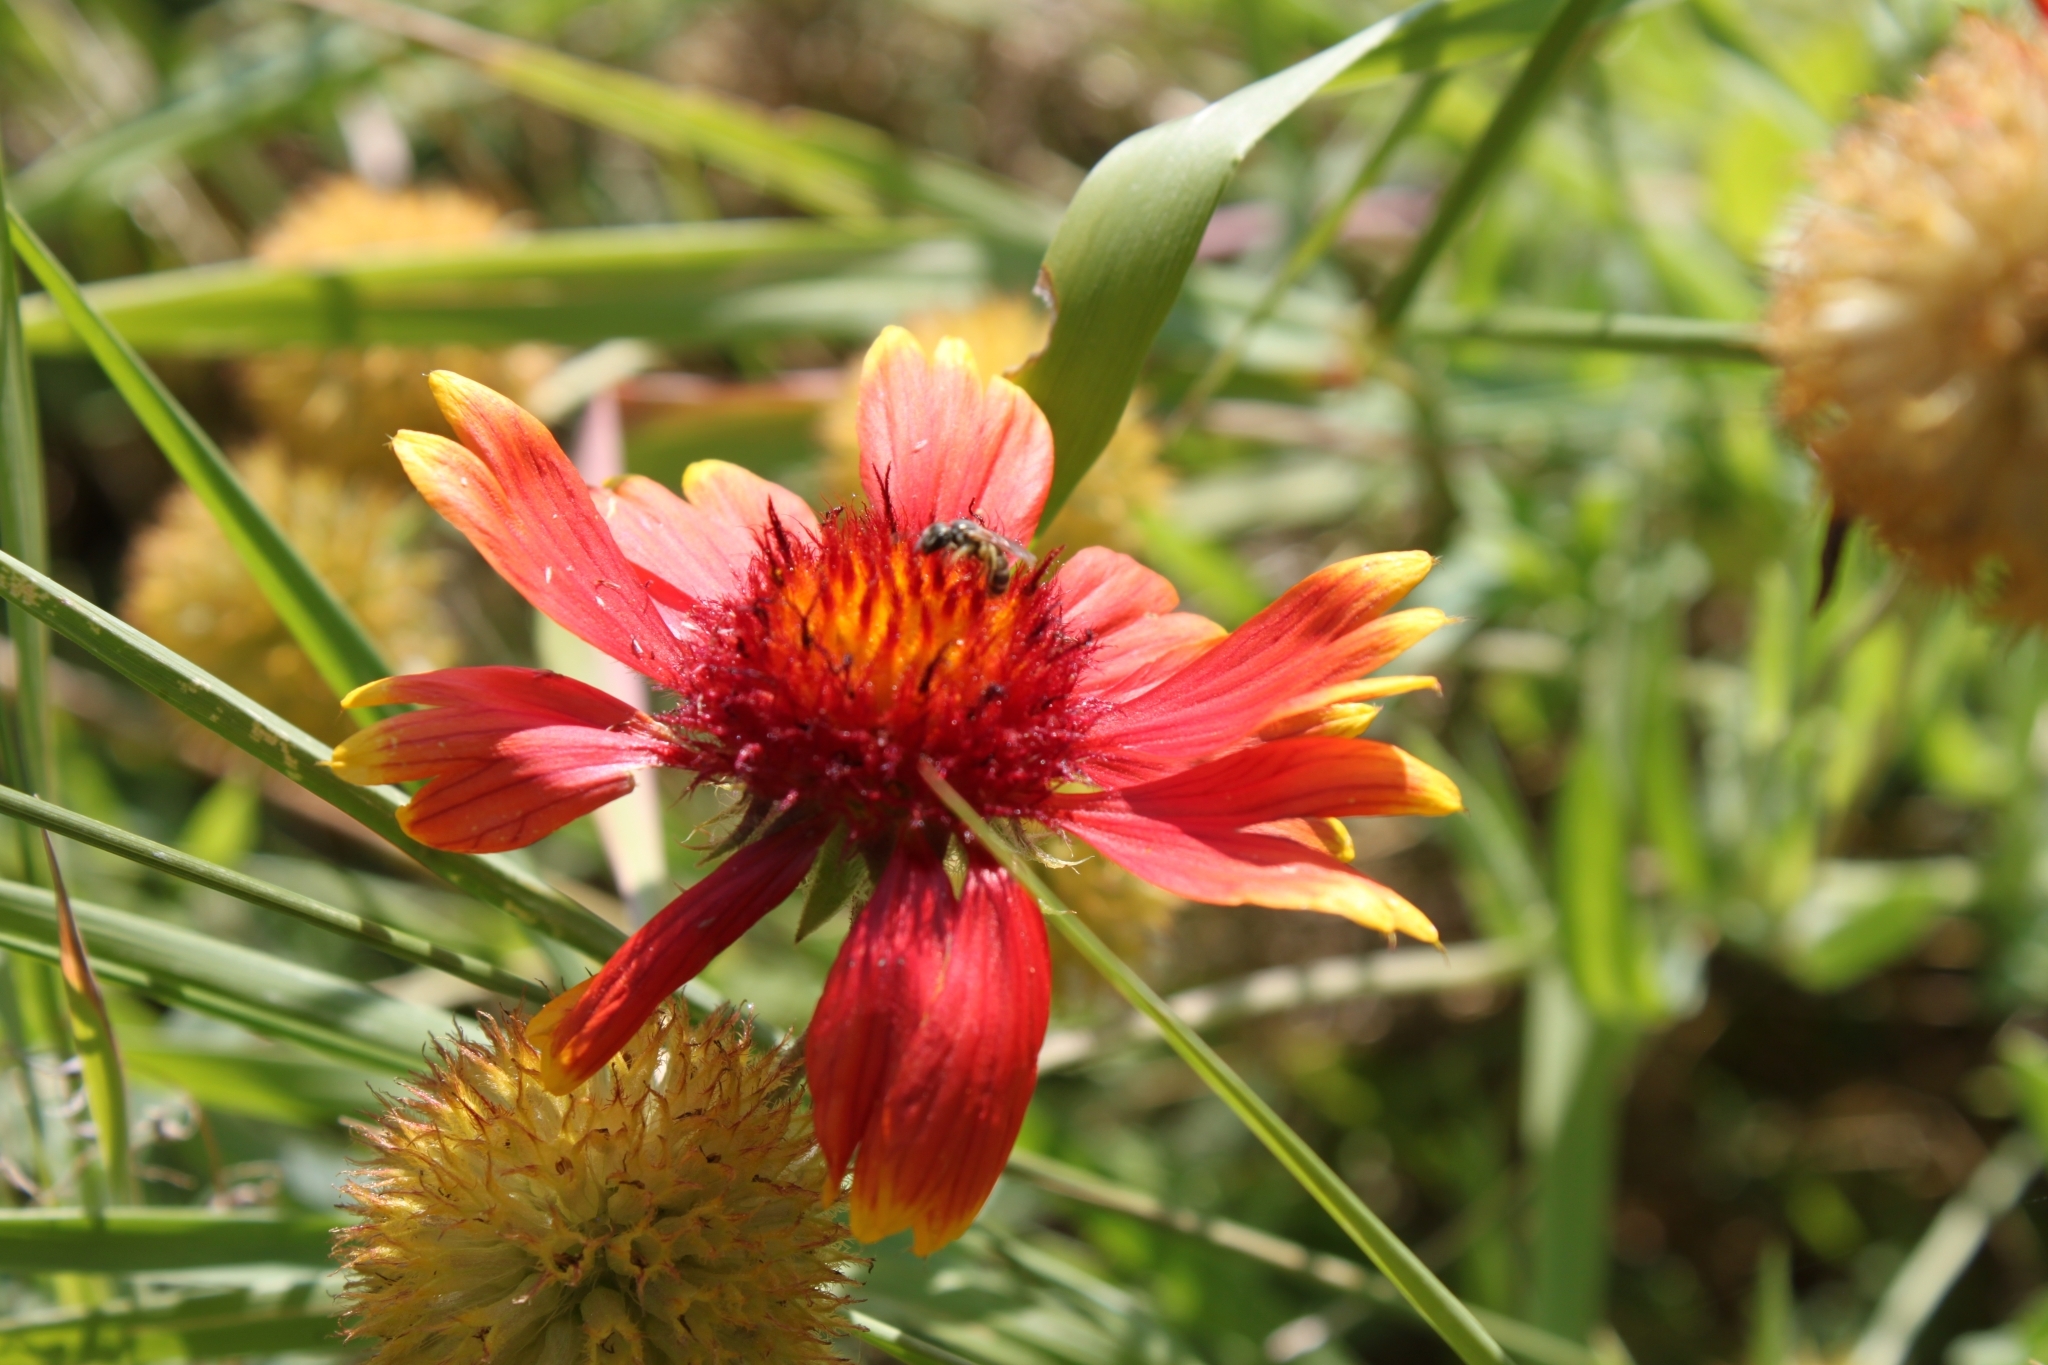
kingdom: Plantae
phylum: Tracheophyta
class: Magnoliopsida
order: Asterales
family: Asteraceae
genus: Gaillardia
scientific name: Gaillardia pulchella
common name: Firewheel
